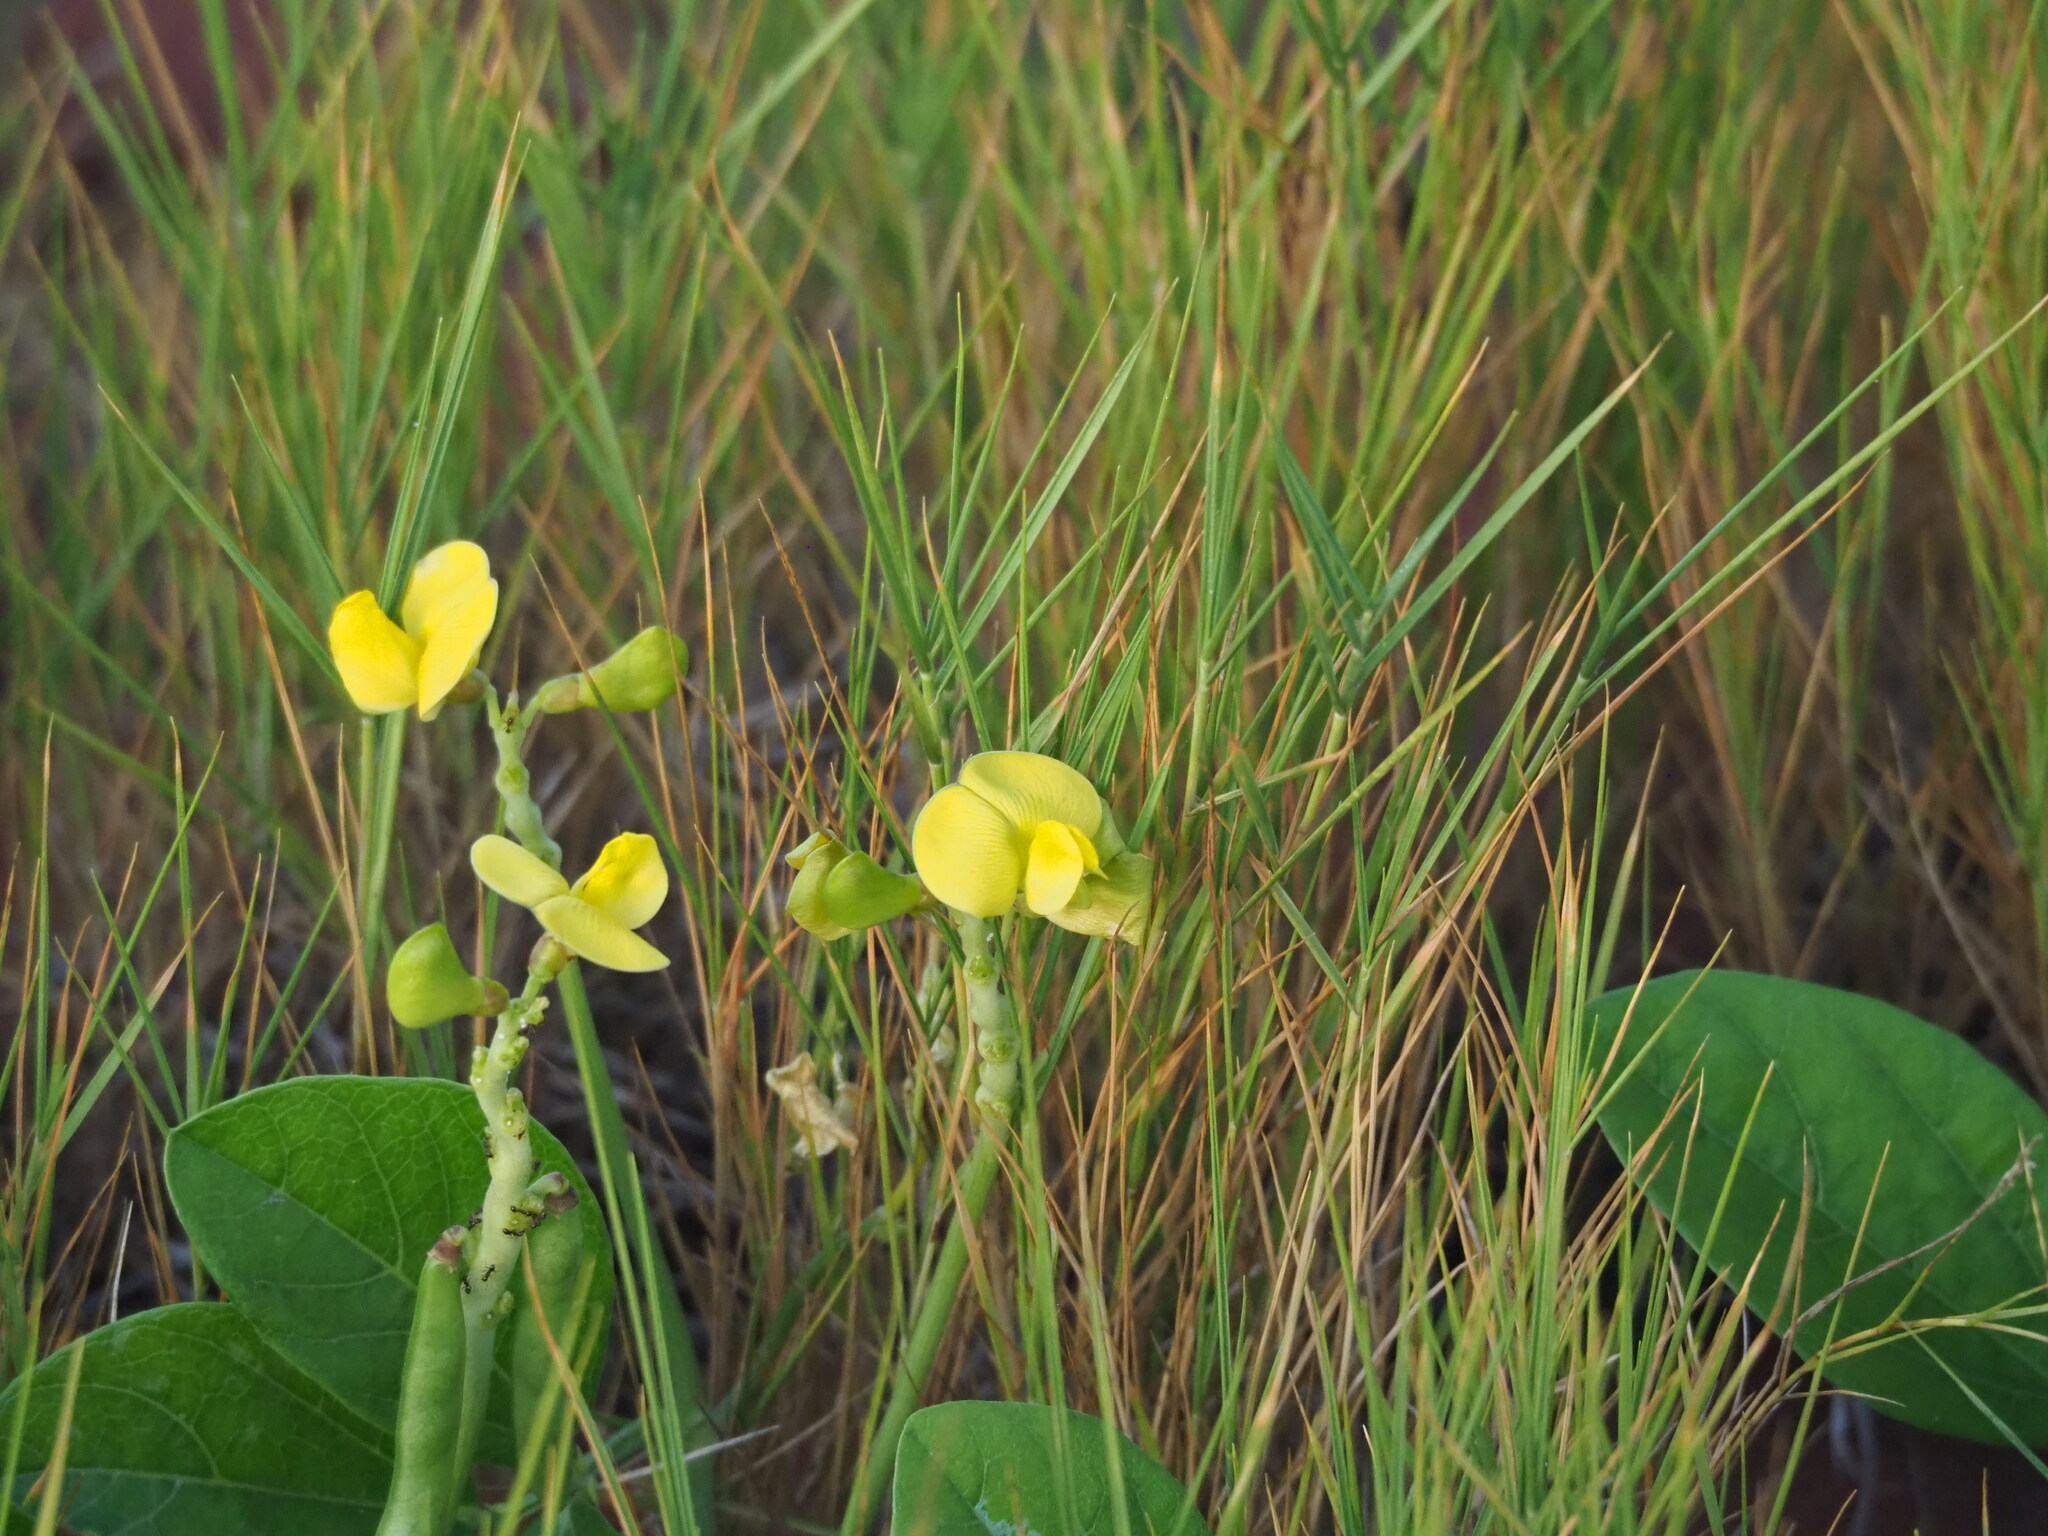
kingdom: Plantae
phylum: Tracheophyta
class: Magnoliopsida
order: Fabales
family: Fabaceae
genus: Vigna
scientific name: Vigna marina
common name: Dune-bean
